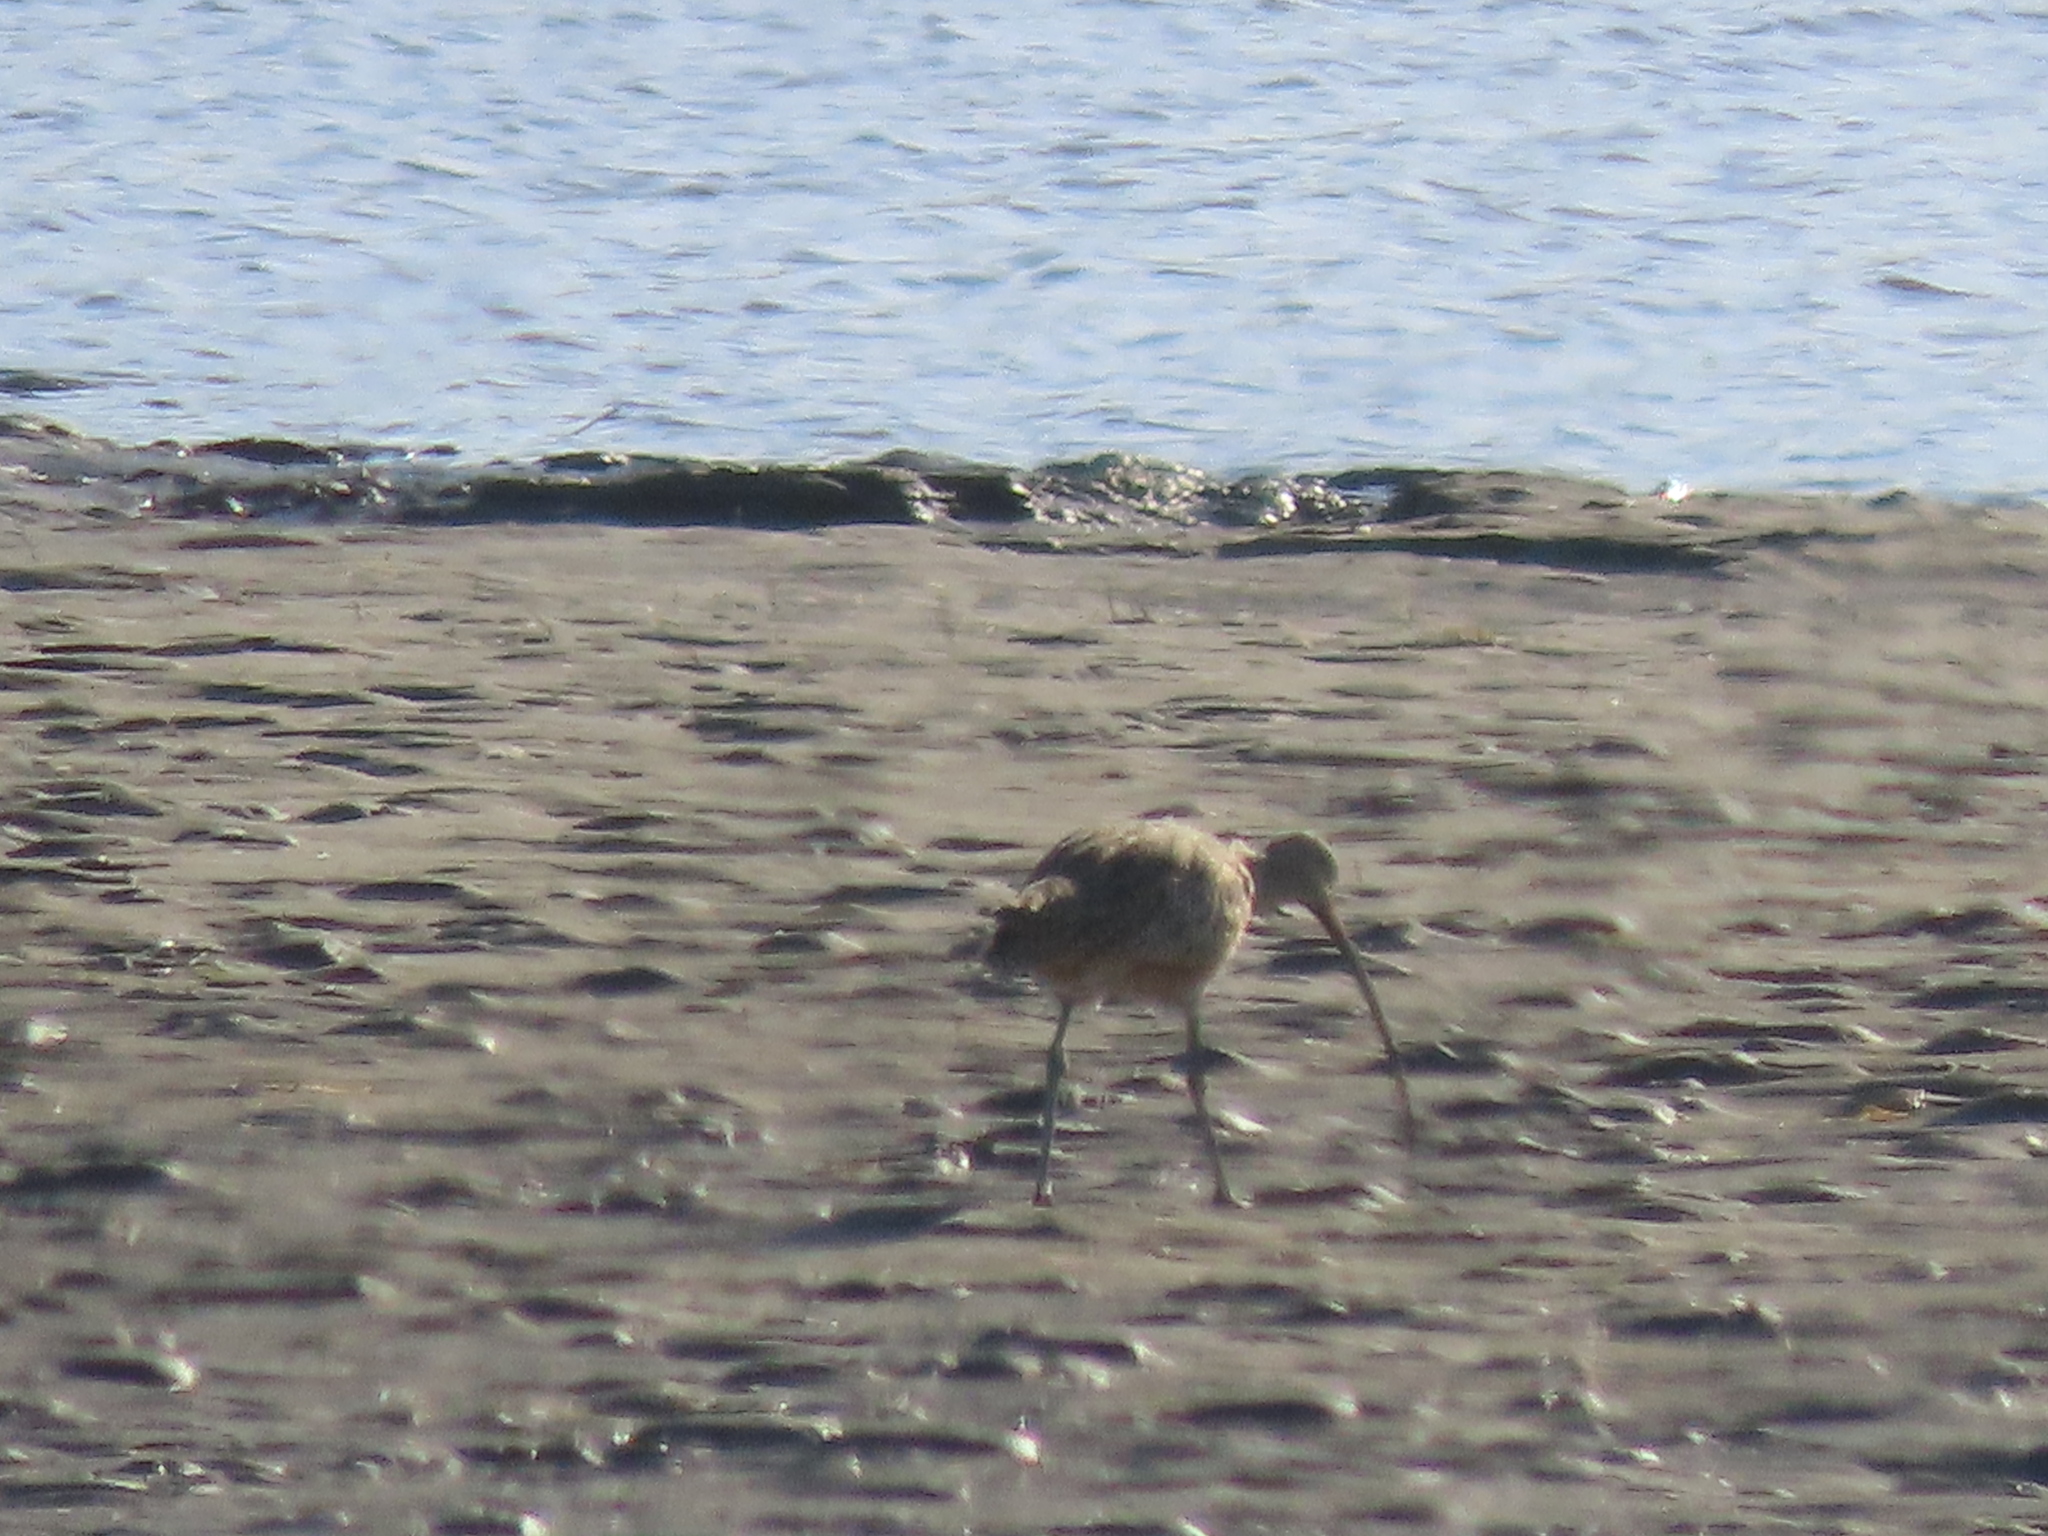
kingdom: Animalia
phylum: Chordata
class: Aves
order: Charadriiformes
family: Scolopacidae
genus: Numenius
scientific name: Numenius americanus
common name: Long-billed curlew
